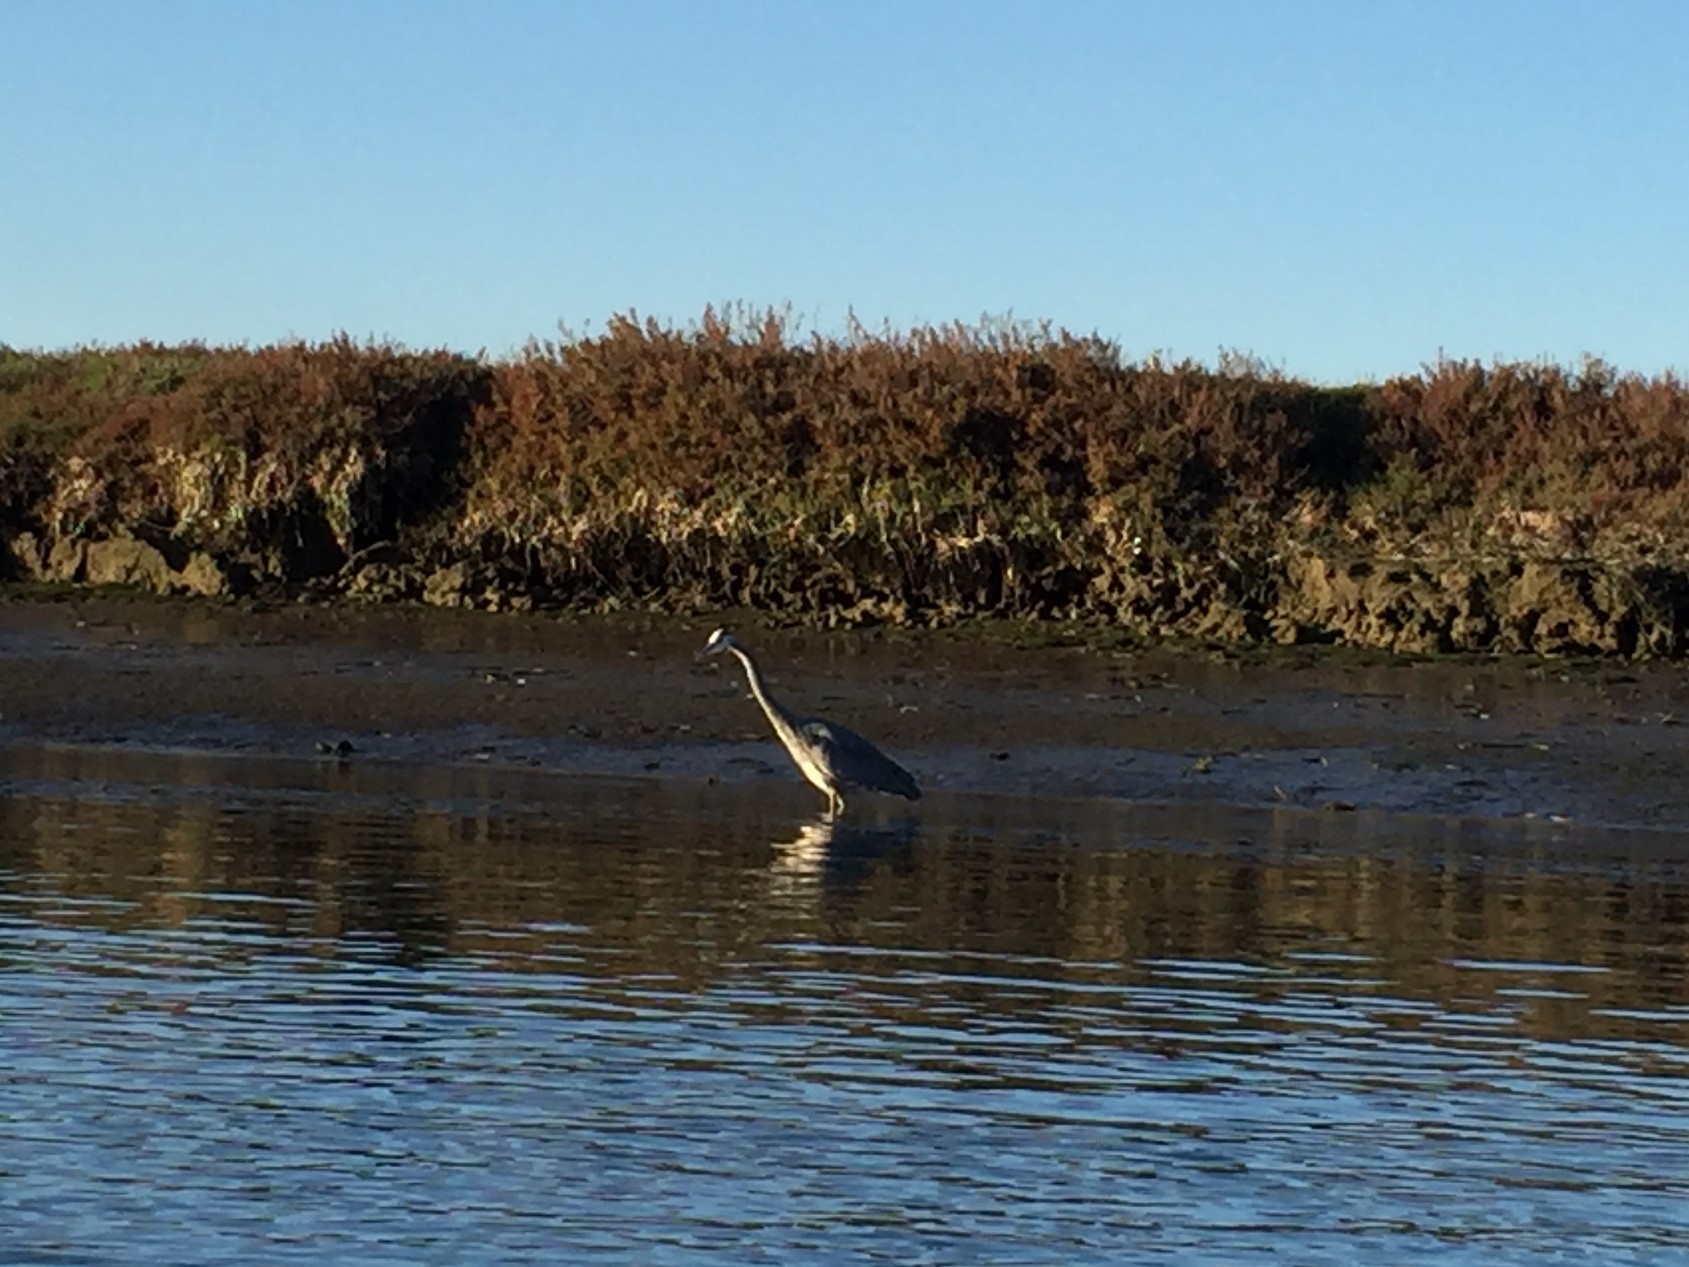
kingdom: Animalia
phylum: Chordata
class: Aves
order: Pelecaniformes
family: Ardeidae
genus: Ardea
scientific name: Ardea herodias
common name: Great blue heron
